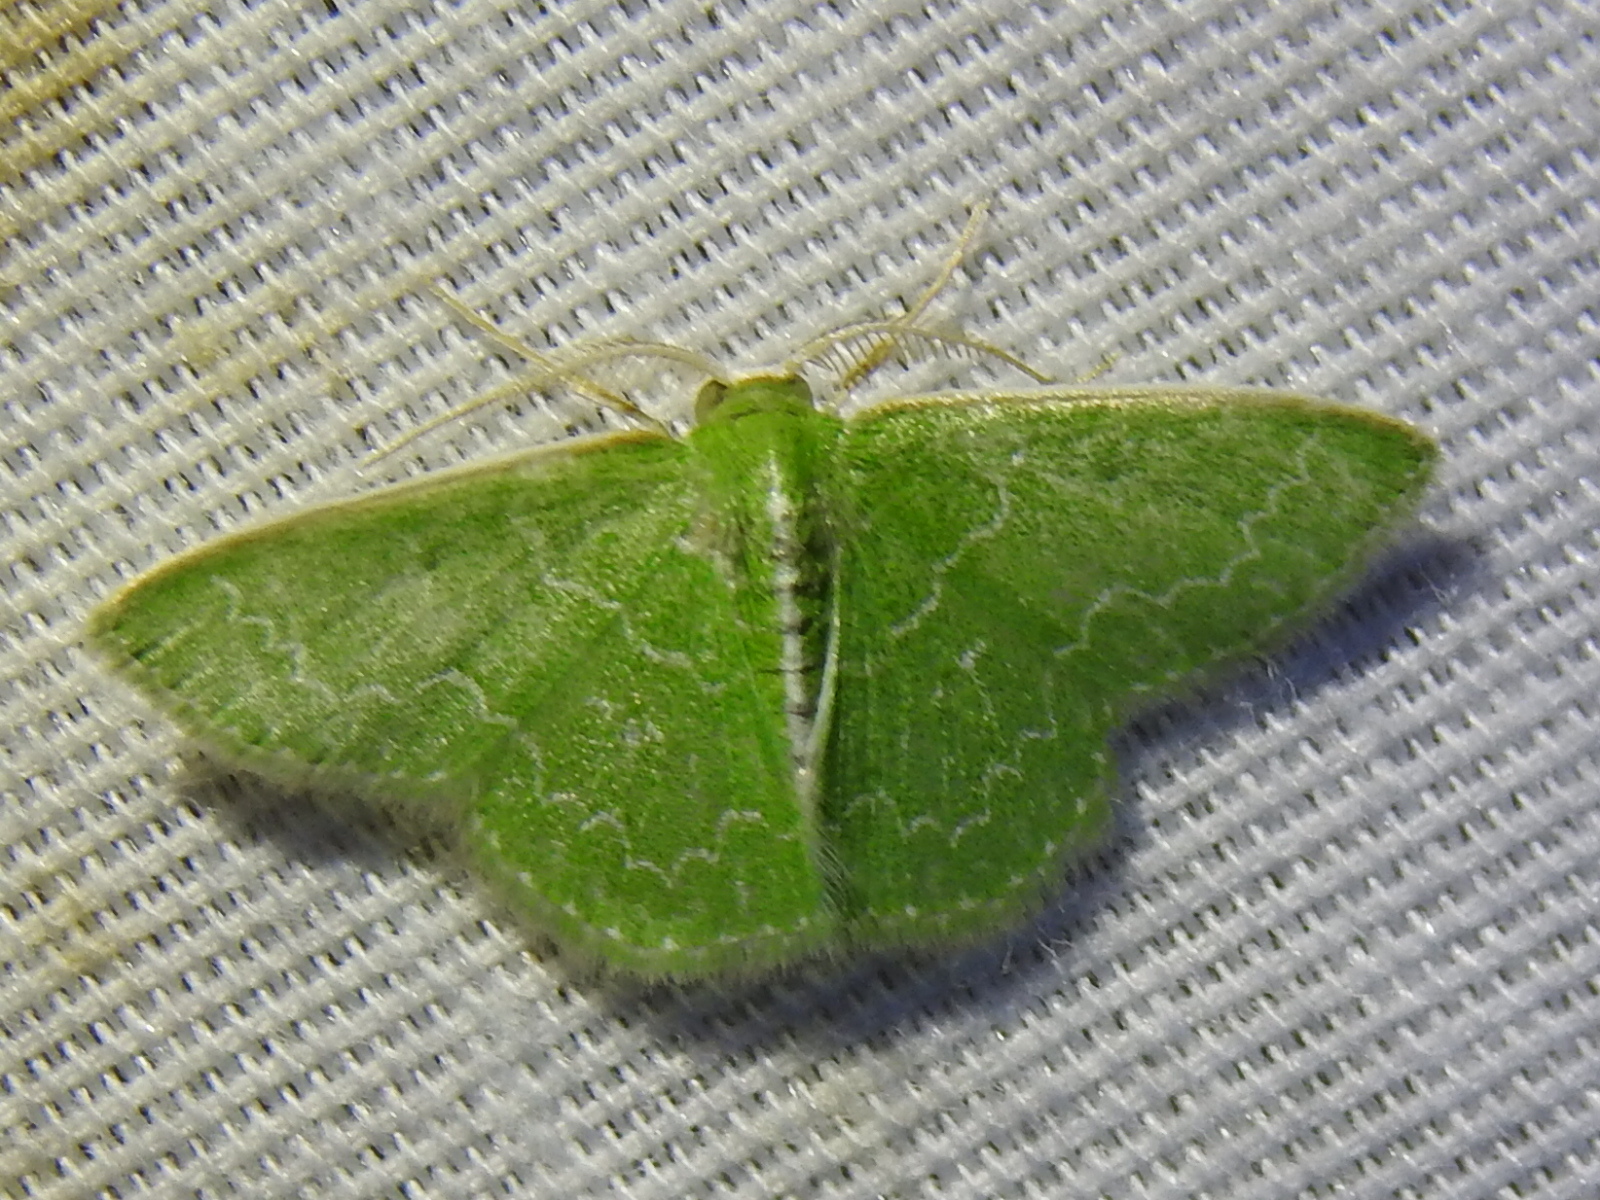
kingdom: Animalia
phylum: Arthropoda
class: Insecta
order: Lepidoptera
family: Geometridae
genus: Synchlora
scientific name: Synchlora frondaria
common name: Southern emerald
